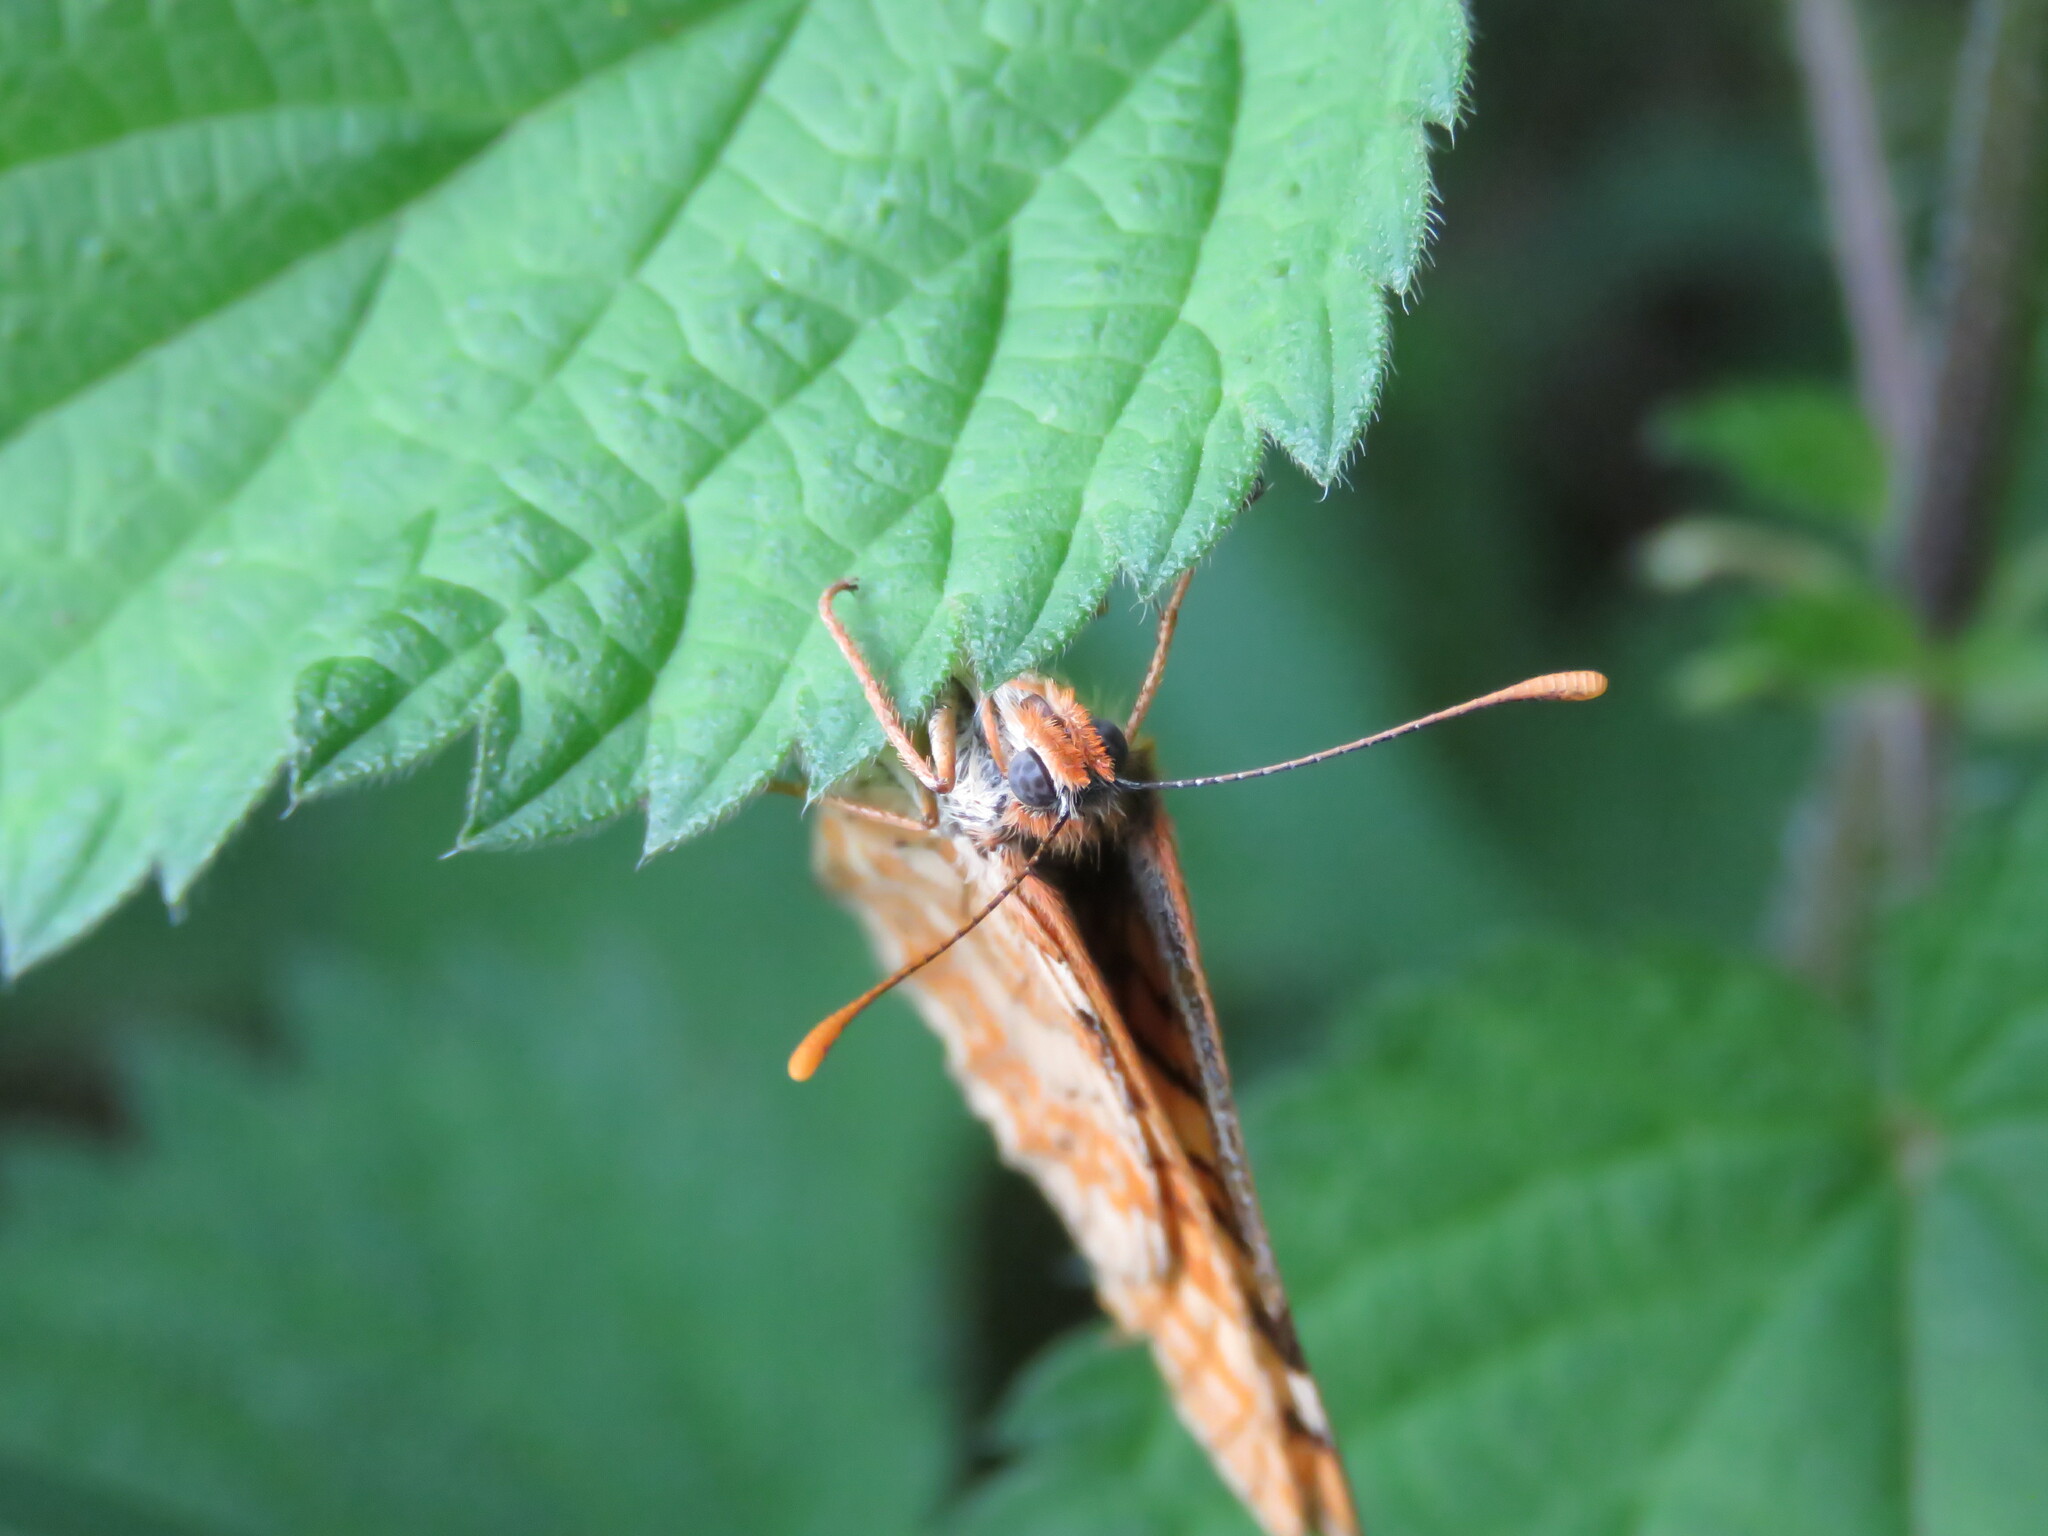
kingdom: Animalia
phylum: Arthropoda
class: Insecta
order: Lepidoptera
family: Nymphalidae
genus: Euphydryas
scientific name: Euphydryas beckeri
